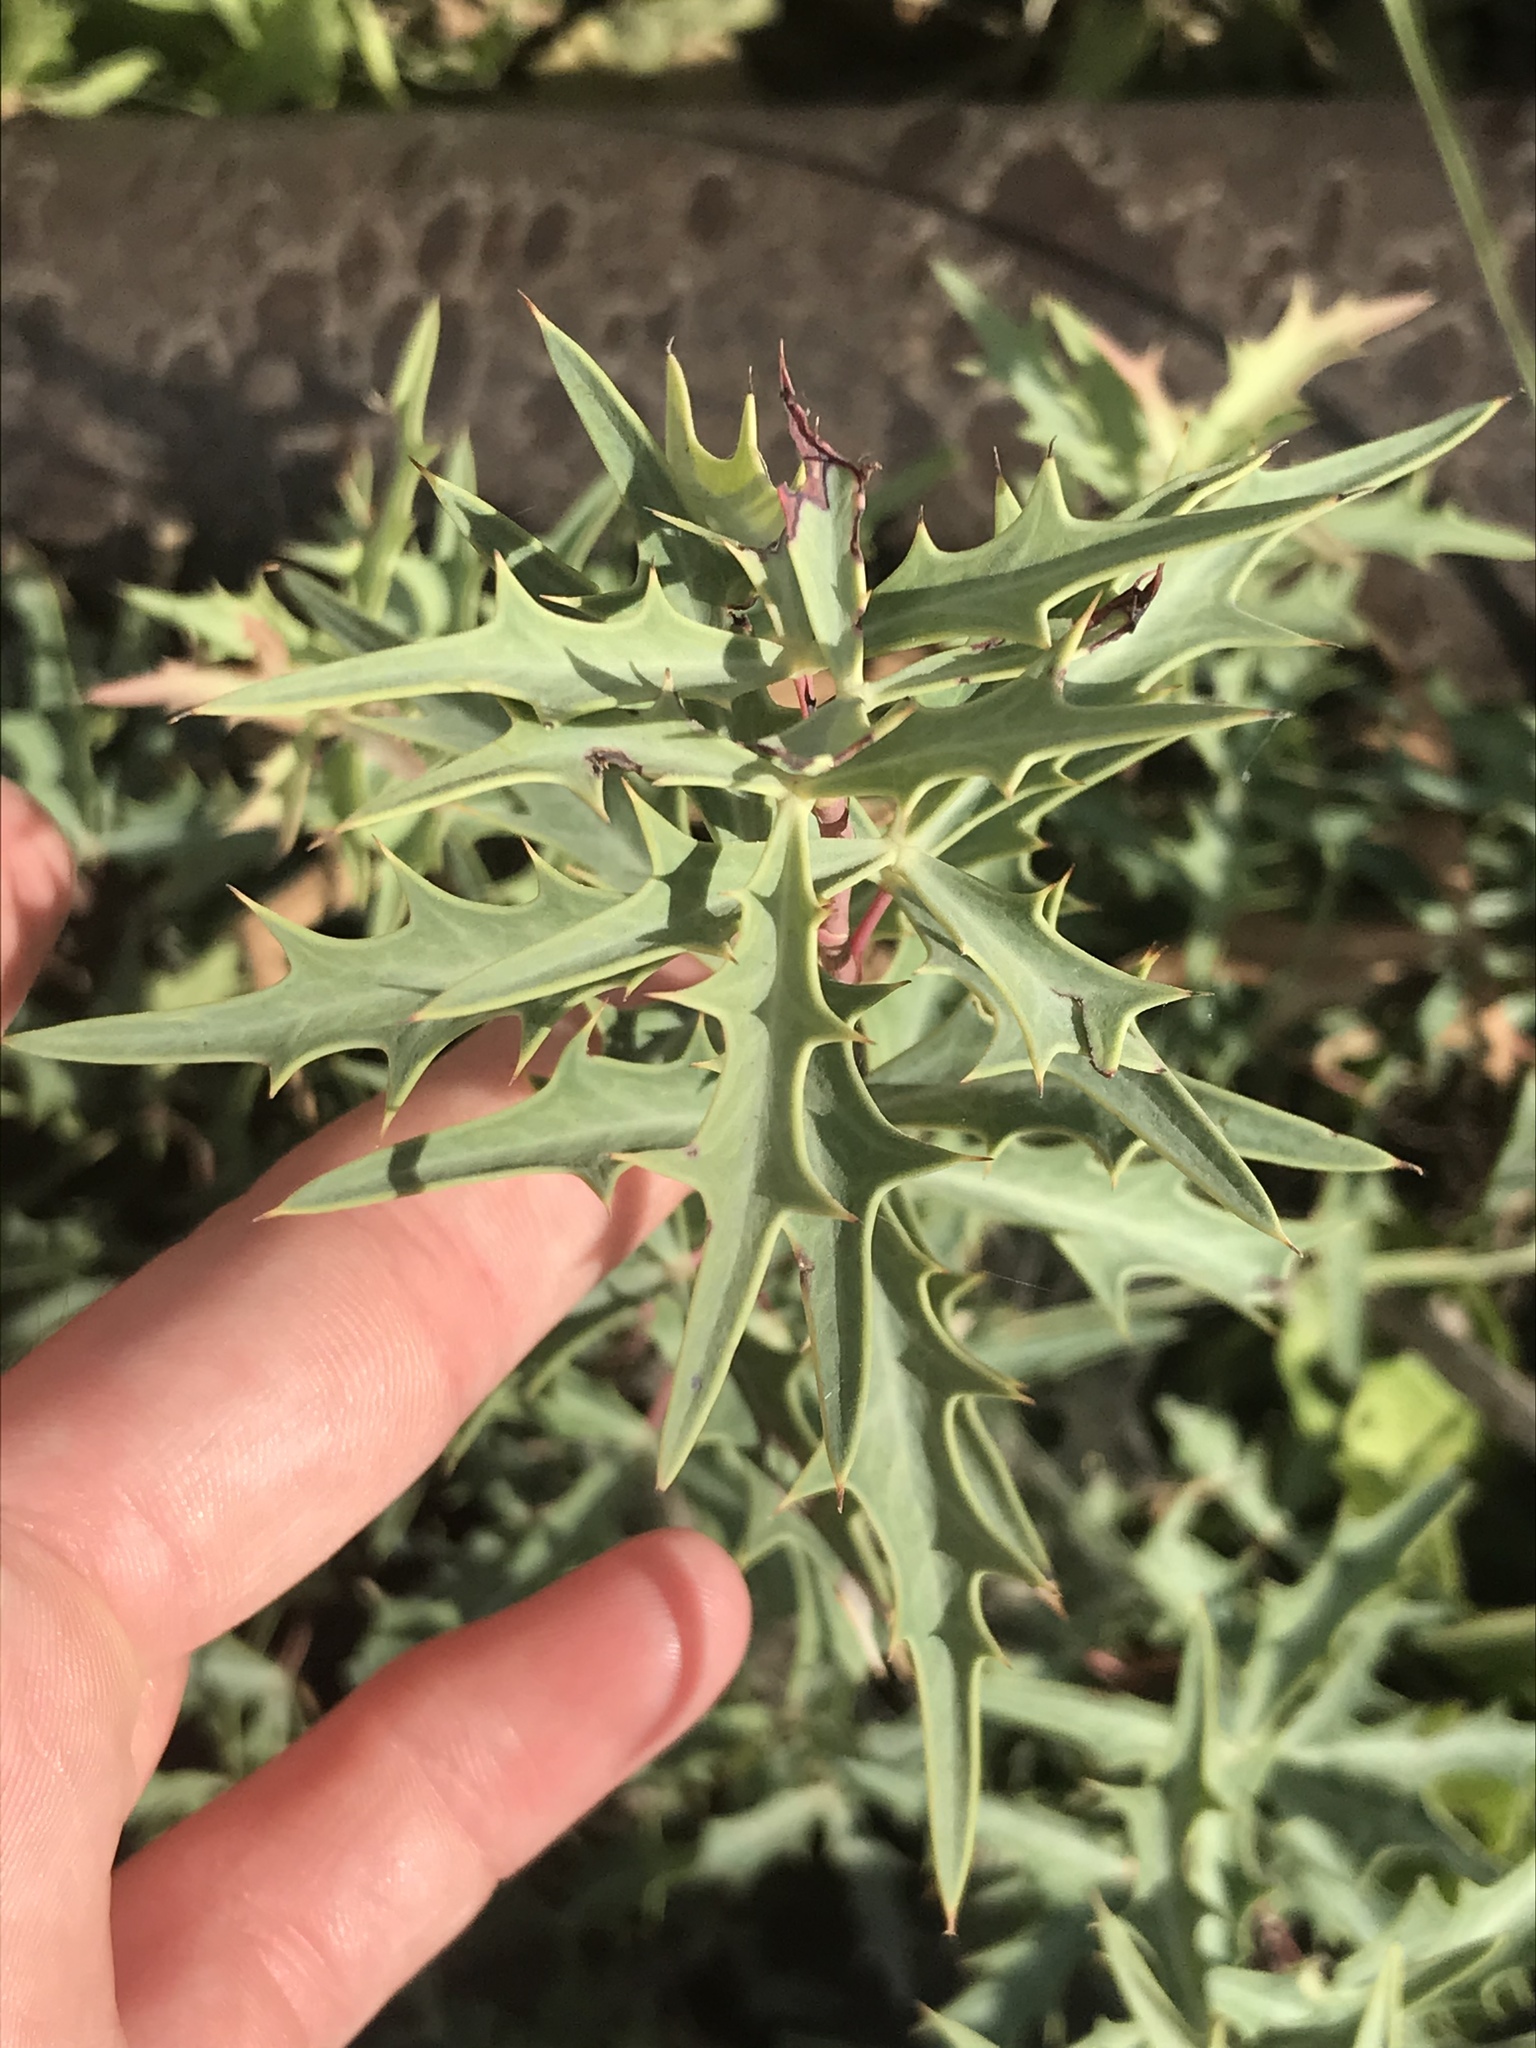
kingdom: Plantae
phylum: Tracheophyta
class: Magnoliopsida
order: Ranunculales
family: Berberidaceae
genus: Alloberberis
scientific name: Alloberberis trifoliolata
